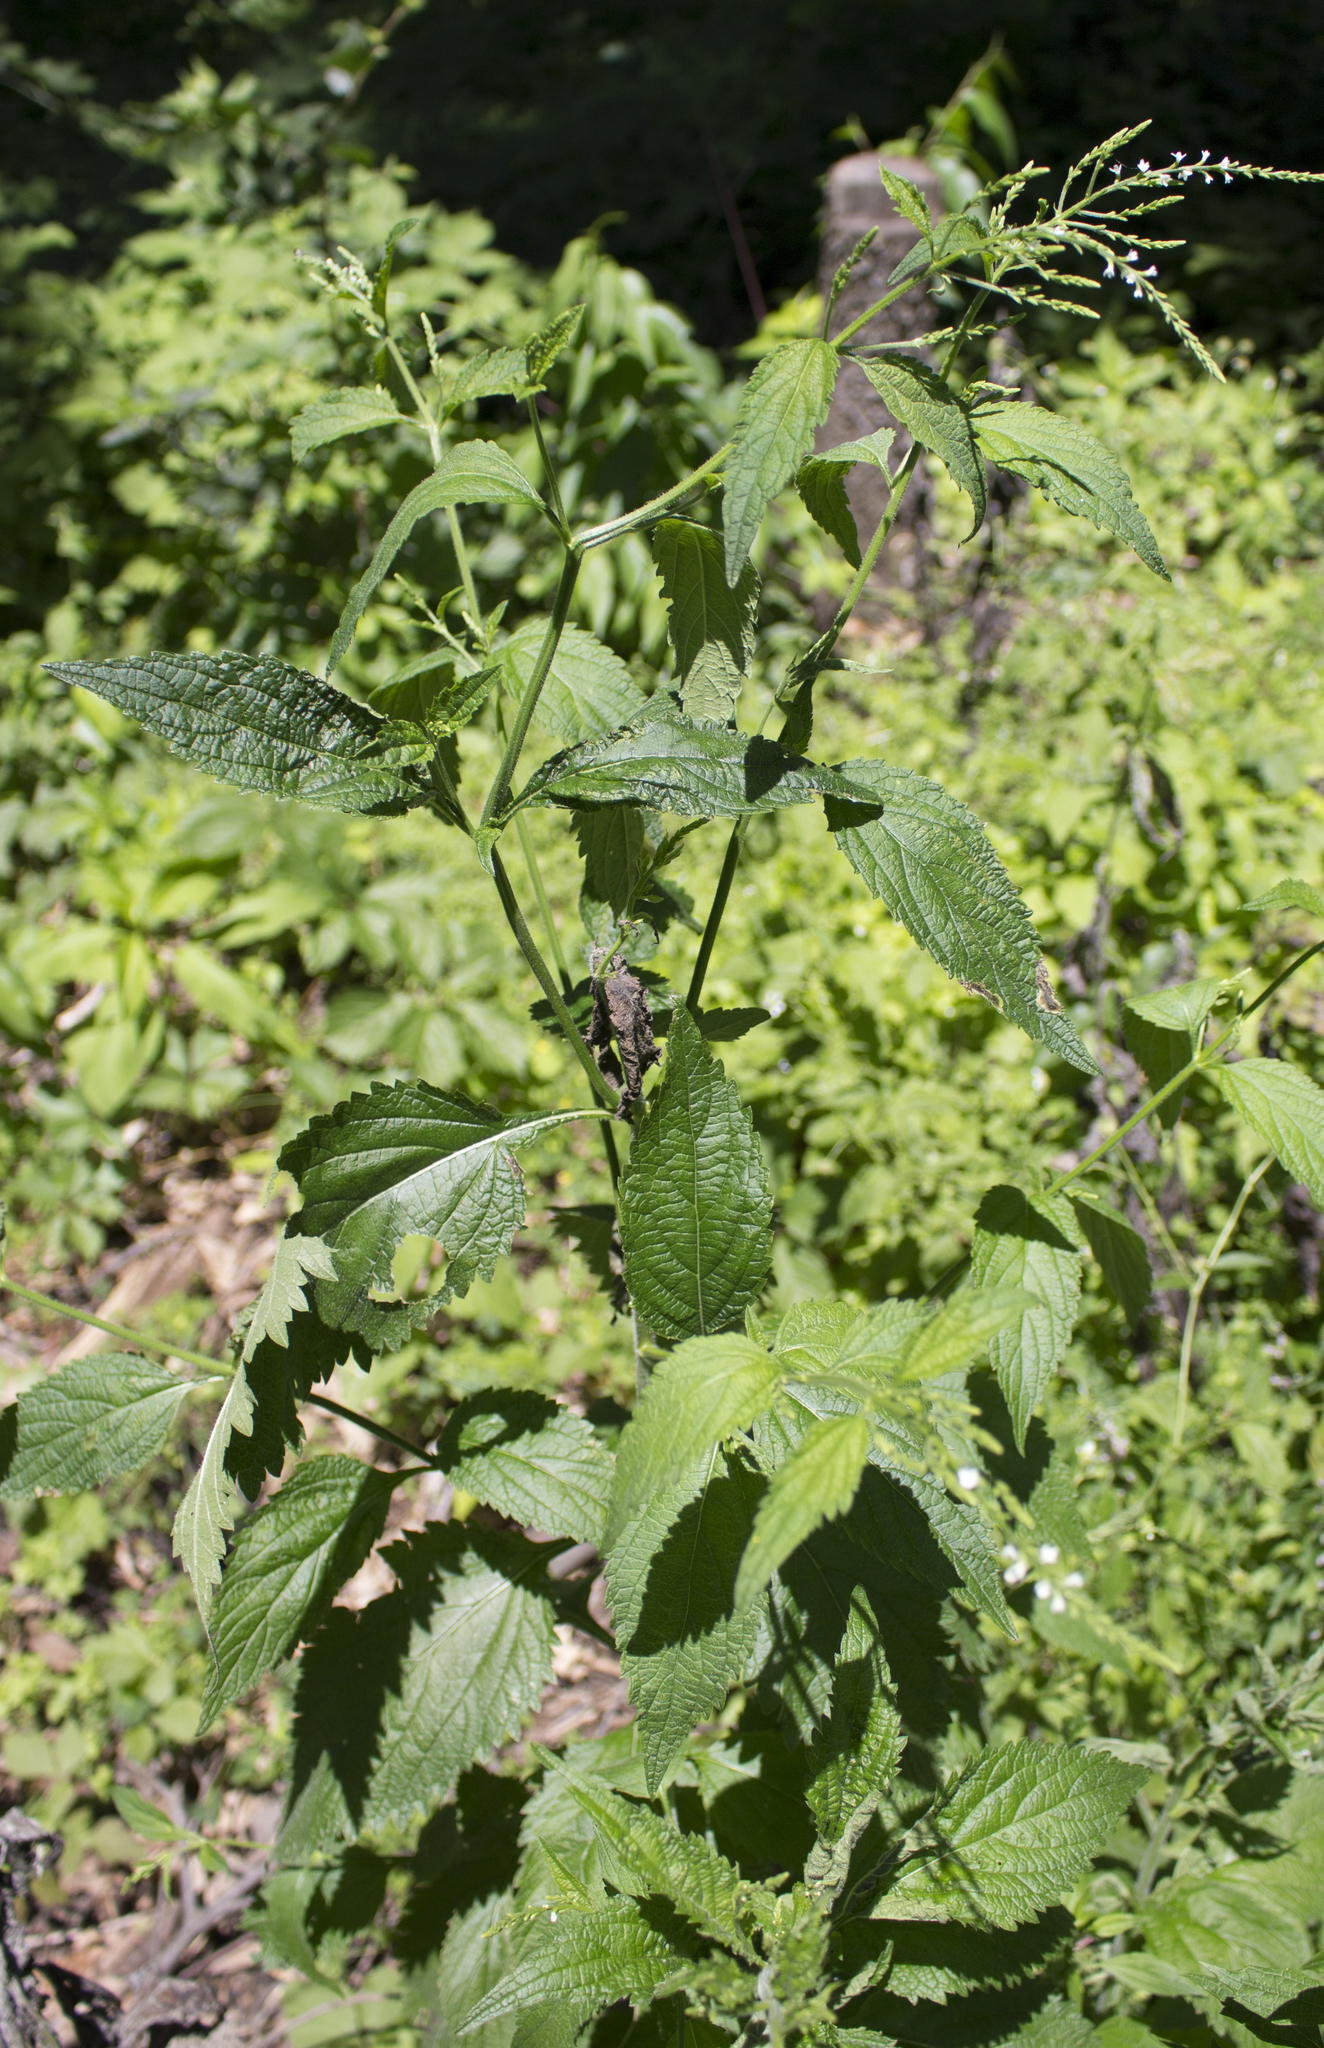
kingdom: Plantae
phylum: Tracheophyta
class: Magnoliopsida
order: Lamiales
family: Verbenaceae
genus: Verbena
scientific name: Verbena urticifolia
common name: Nettle-leaved vervain
